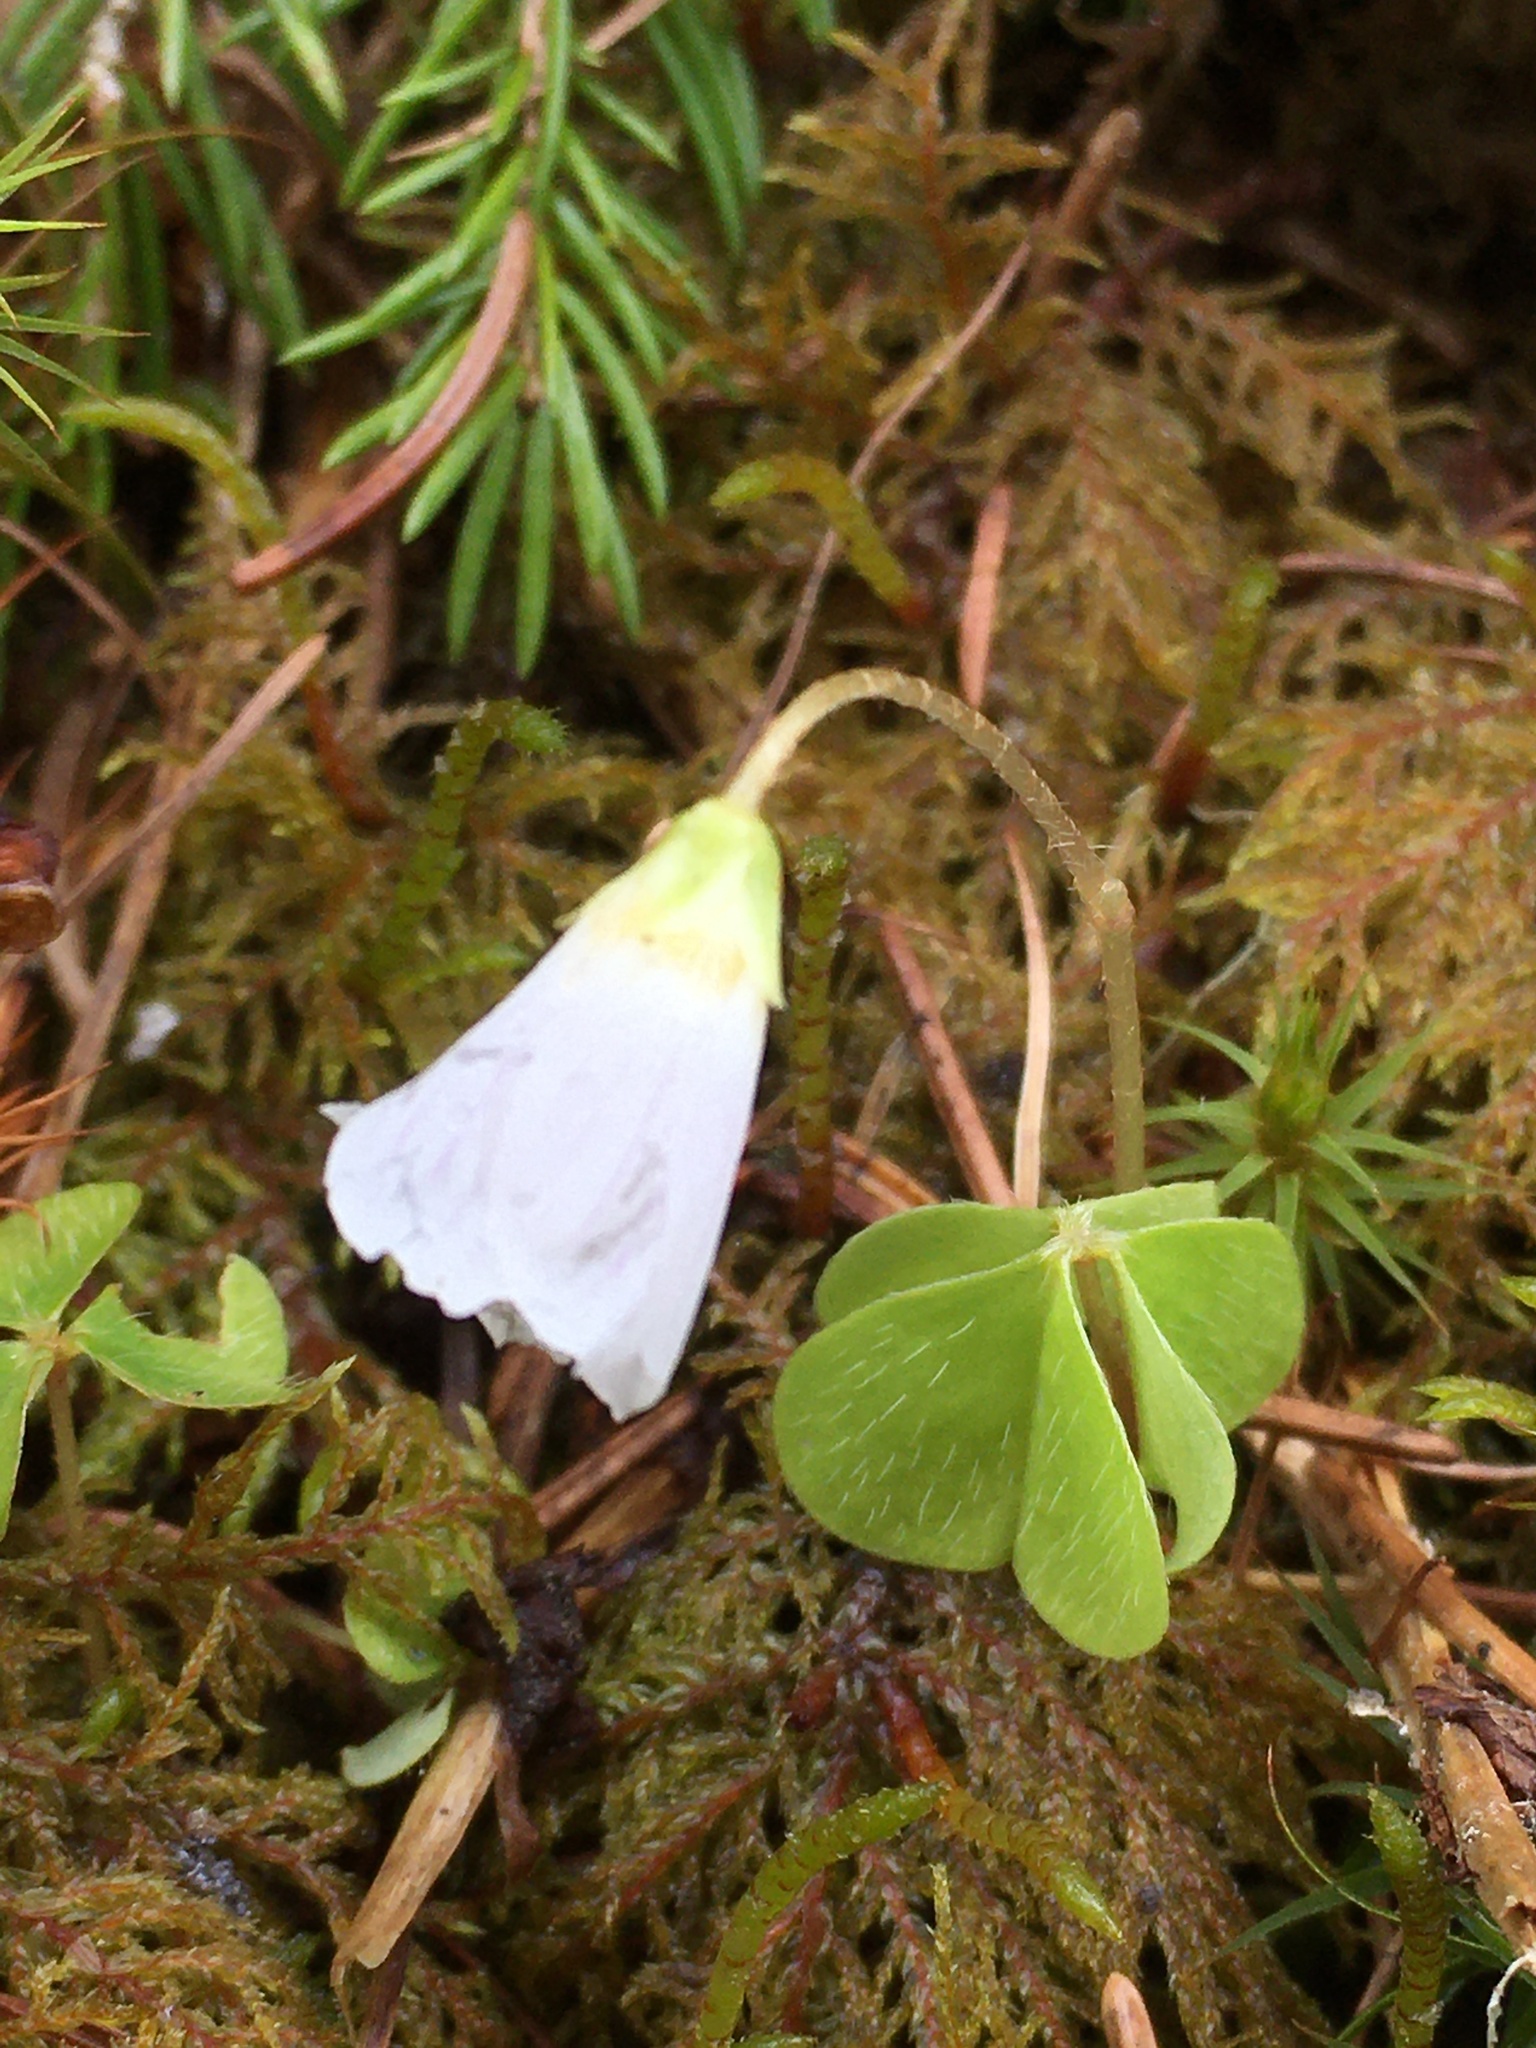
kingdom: Plantae
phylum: Tracheophyta
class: Magnoliopsida
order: Oxalidales
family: Oxalidaceae
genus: Oxalis
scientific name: Oxalis acetosella
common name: Wood-sorrel
